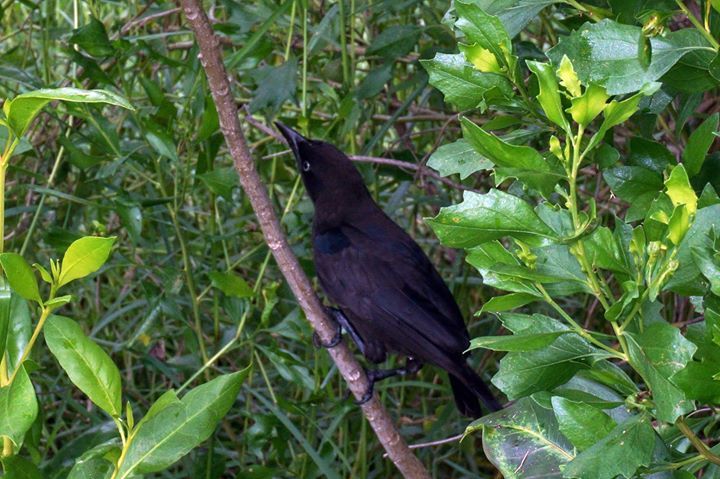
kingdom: Animalia
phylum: Chordata
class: Aves
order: Passeriformes
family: Icteridae
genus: Quiscalus
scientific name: Quiscalus quiscula
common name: Common grackle
